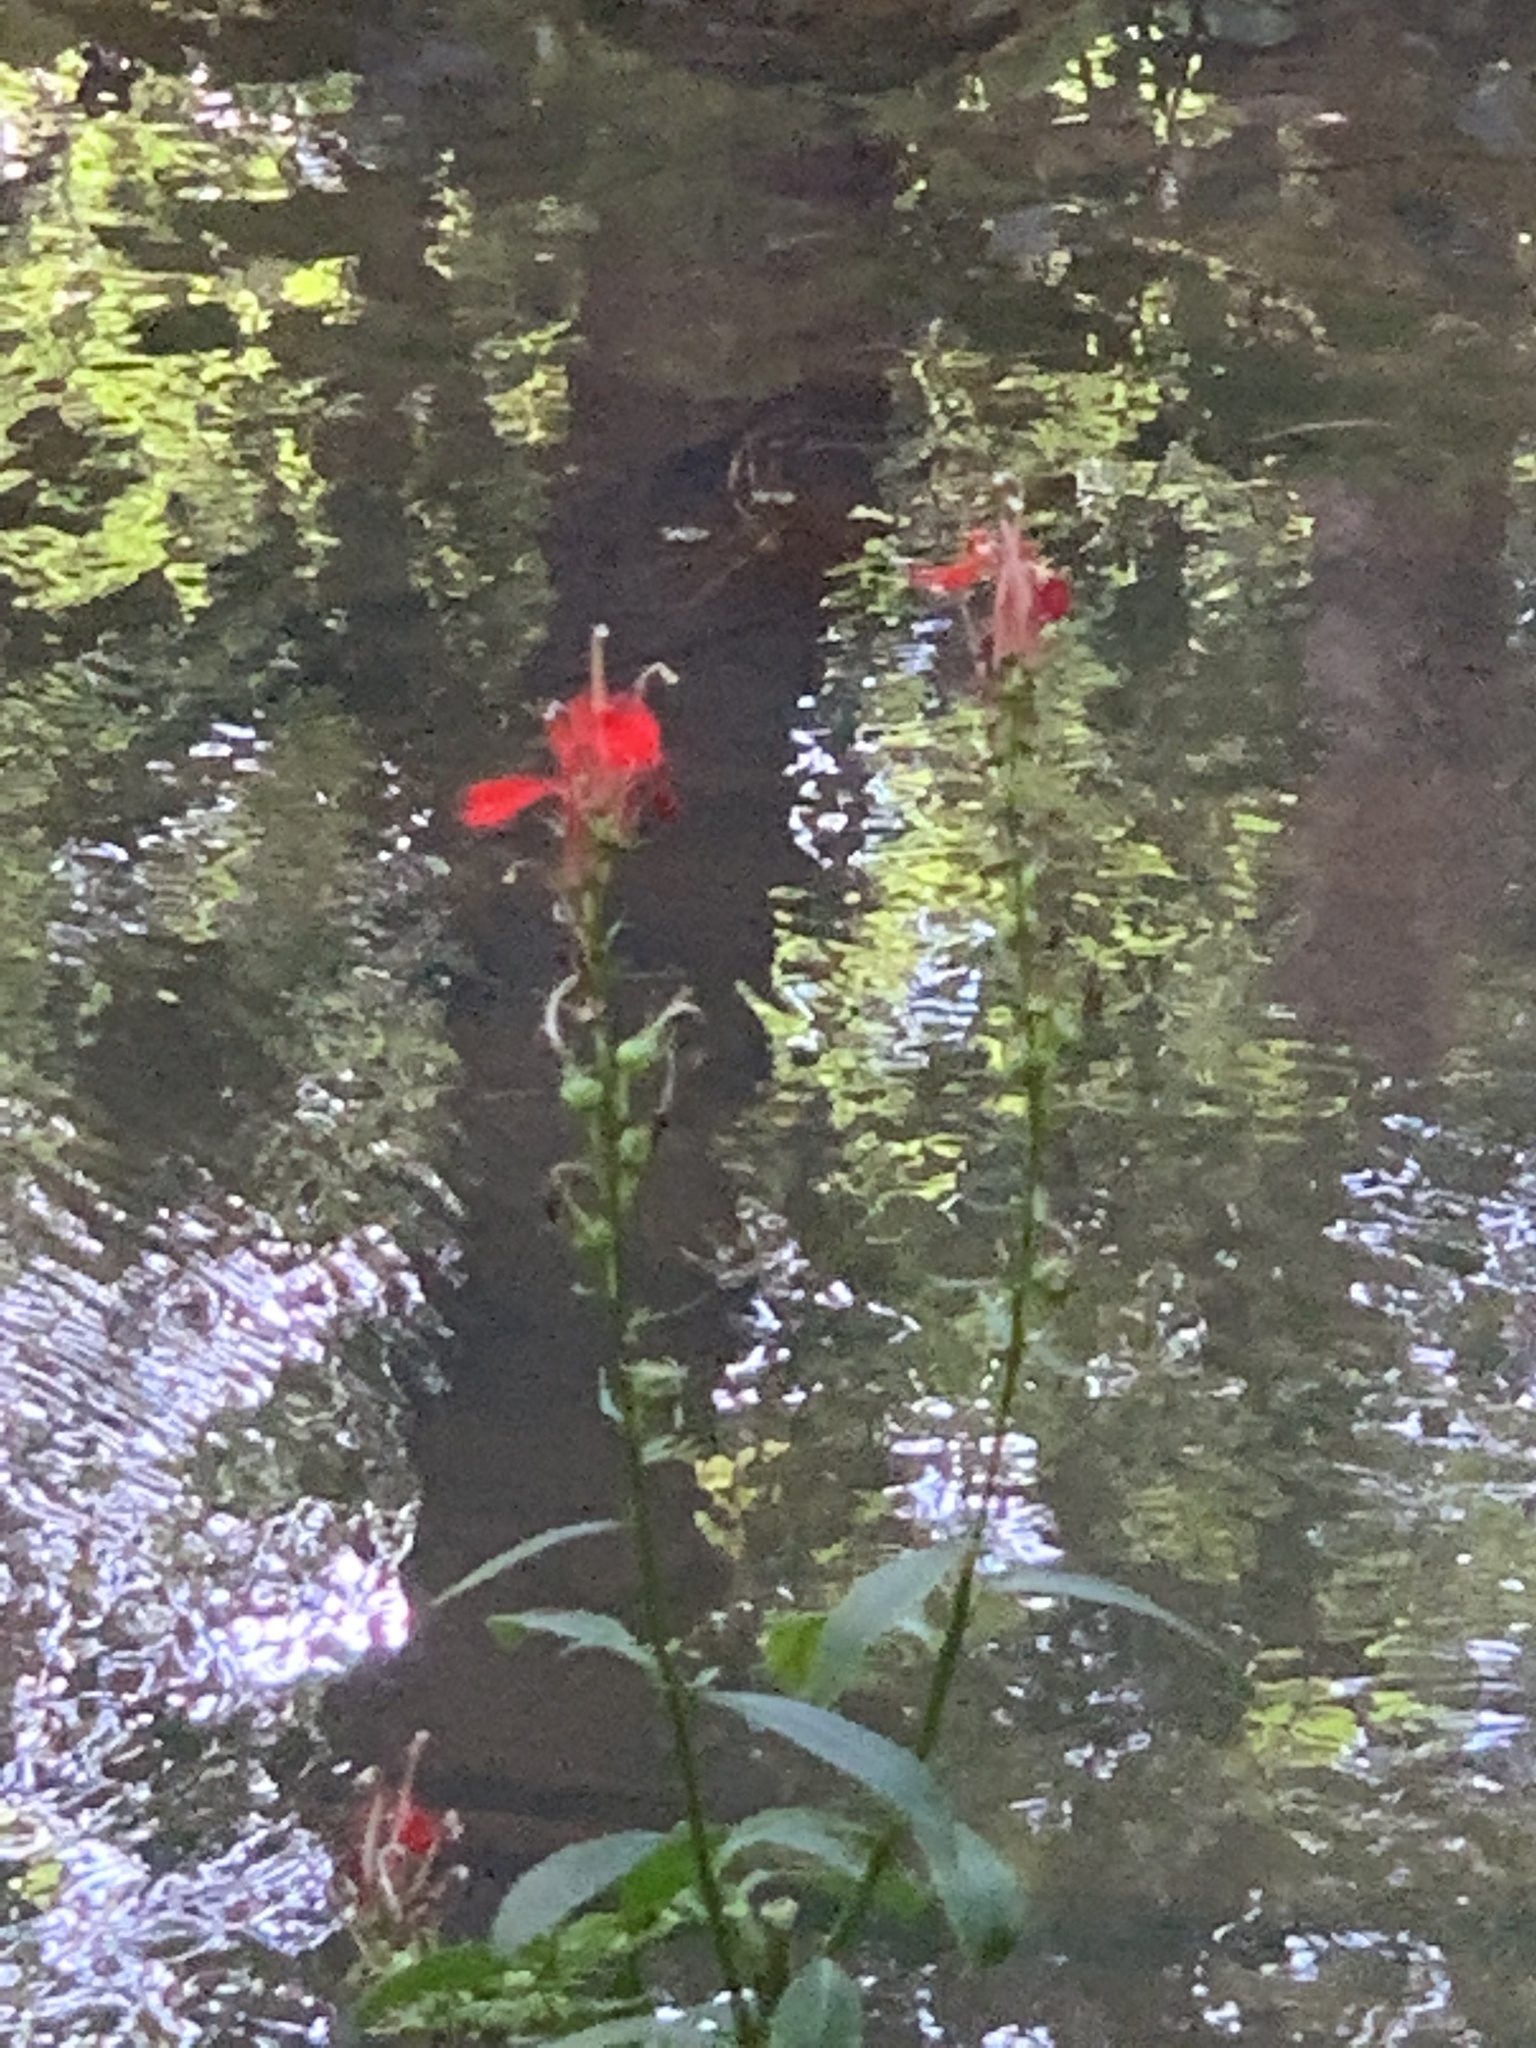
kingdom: Plantae
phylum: Tracheophyta
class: Magnoliopsida
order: Asterales
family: Campanulaceae
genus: Lobelia
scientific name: Lobelia cardinalis
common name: Cardinal flower
